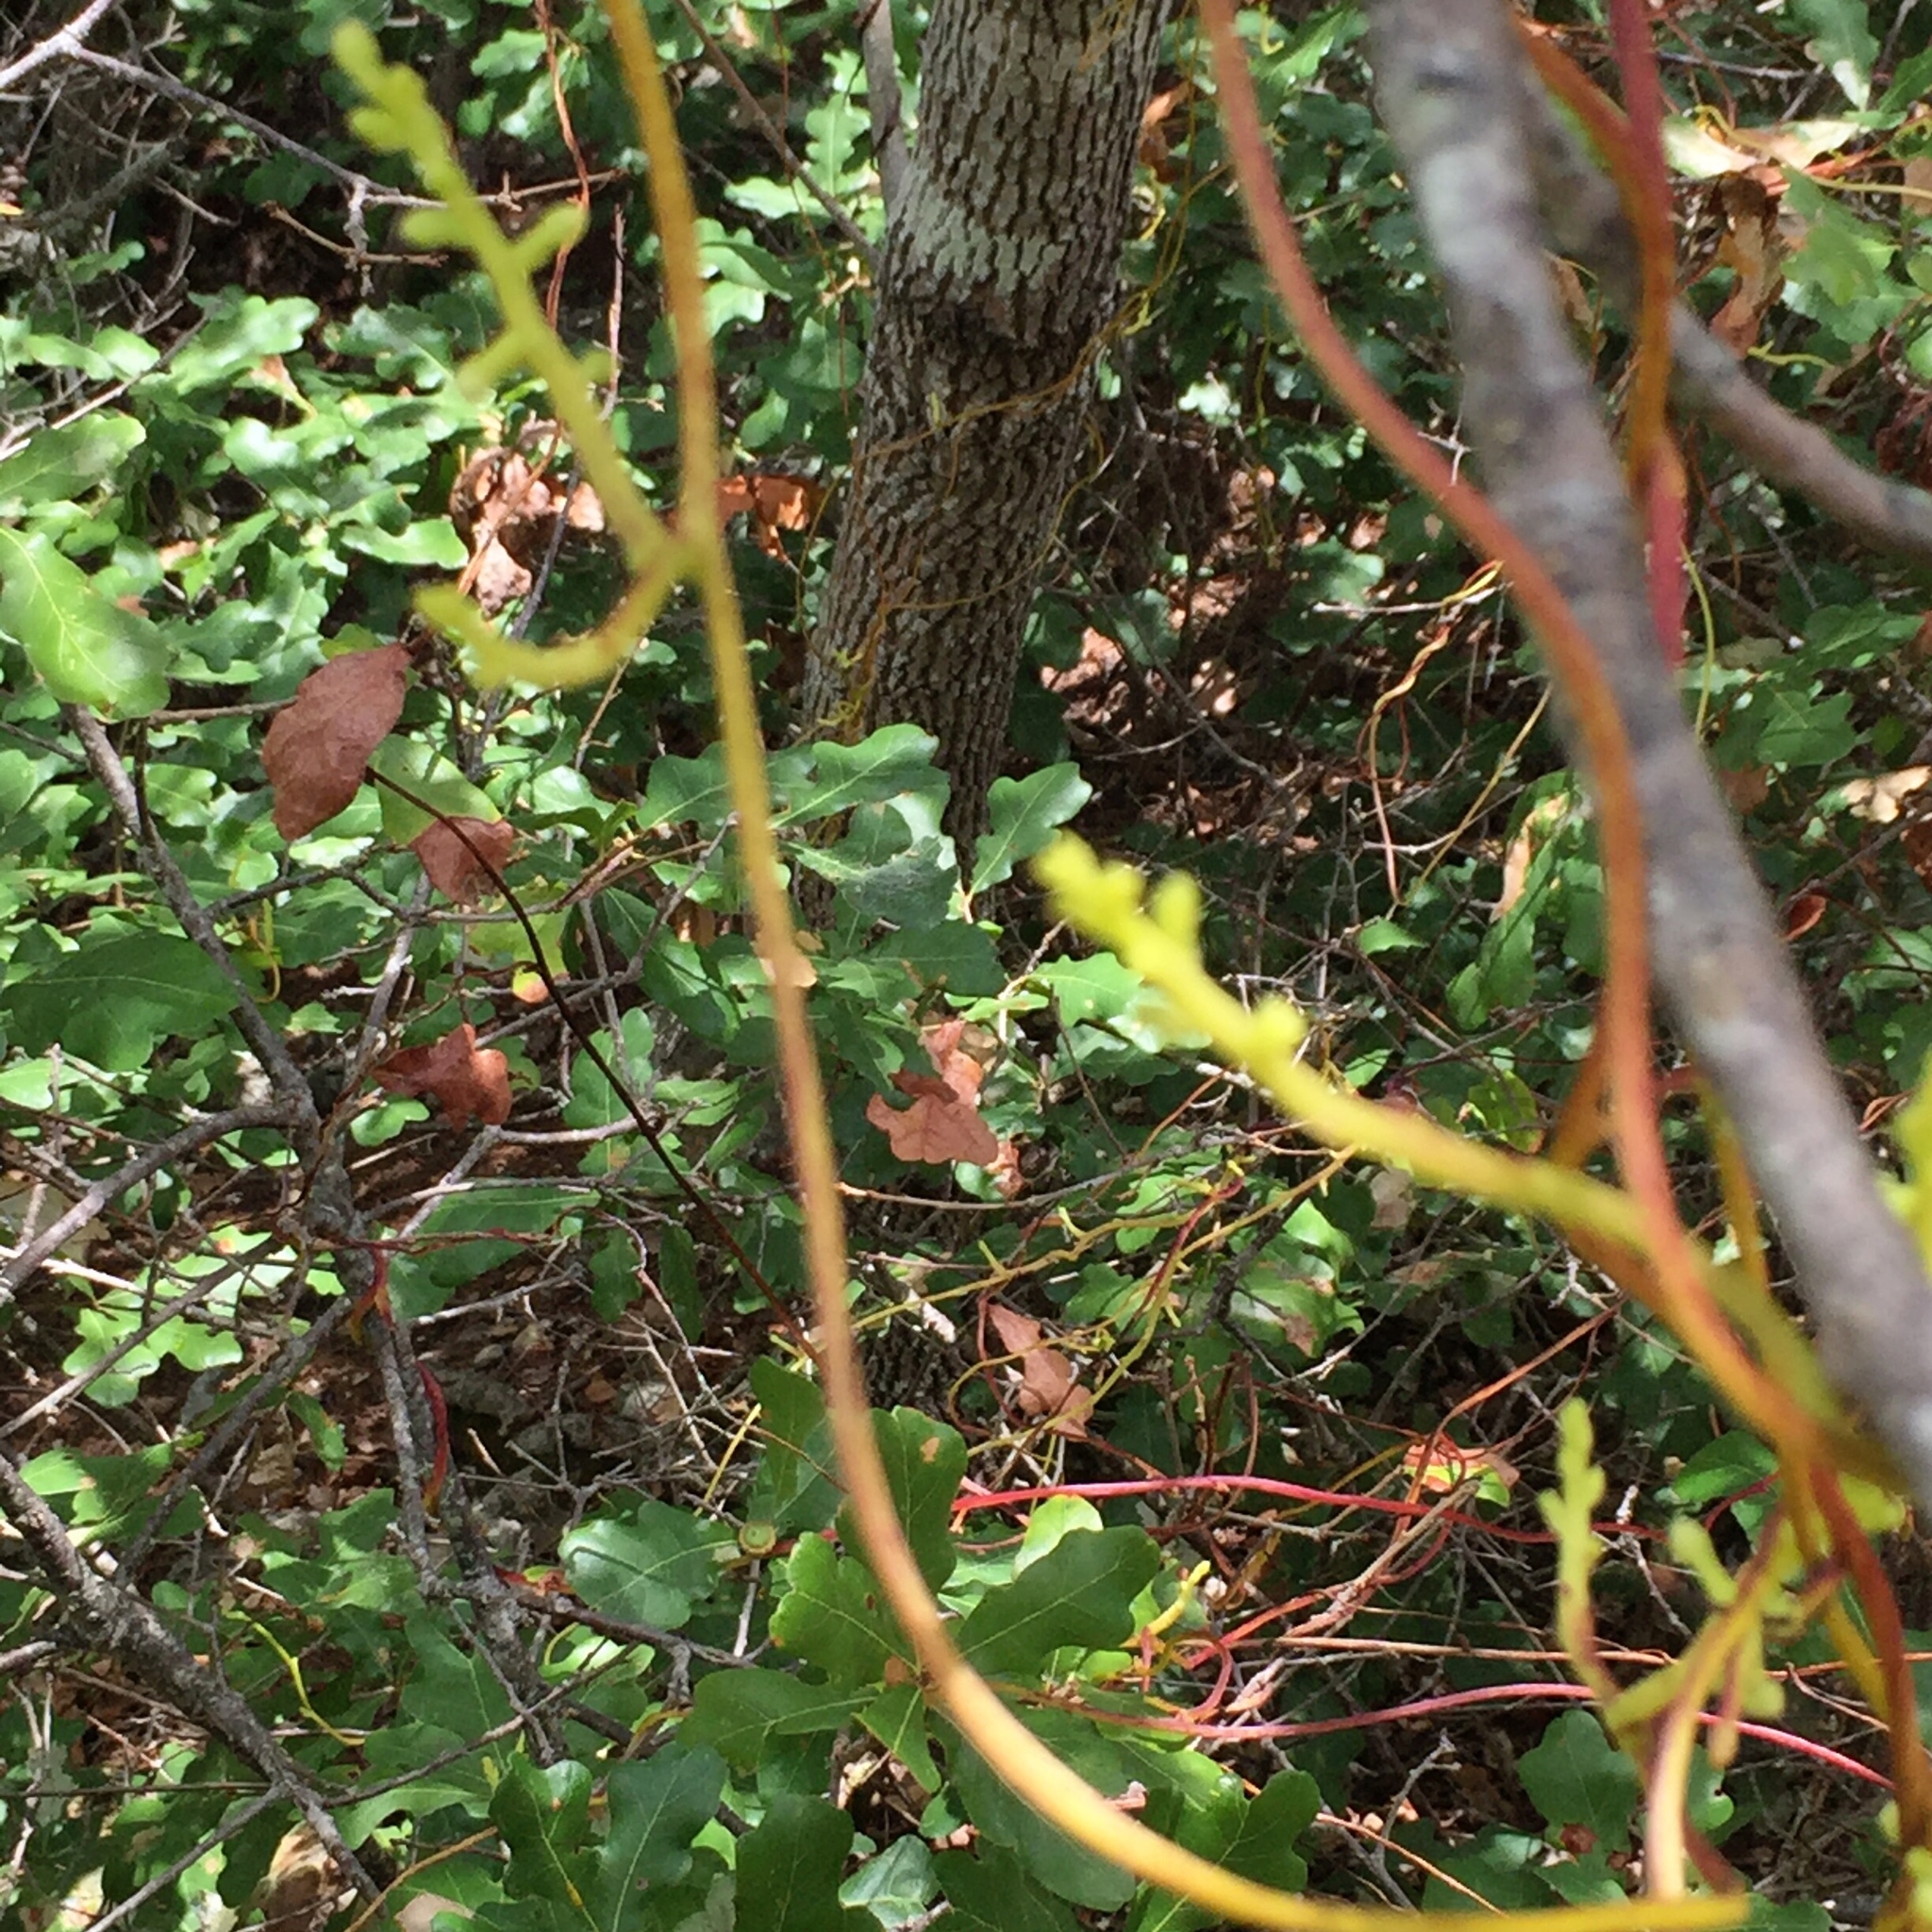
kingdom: Plantae
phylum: Tracheophyta
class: Magnoliopsida
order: Solanales
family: Convolvulaceae
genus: Cuscuta
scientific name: Cuscuta exaltata
